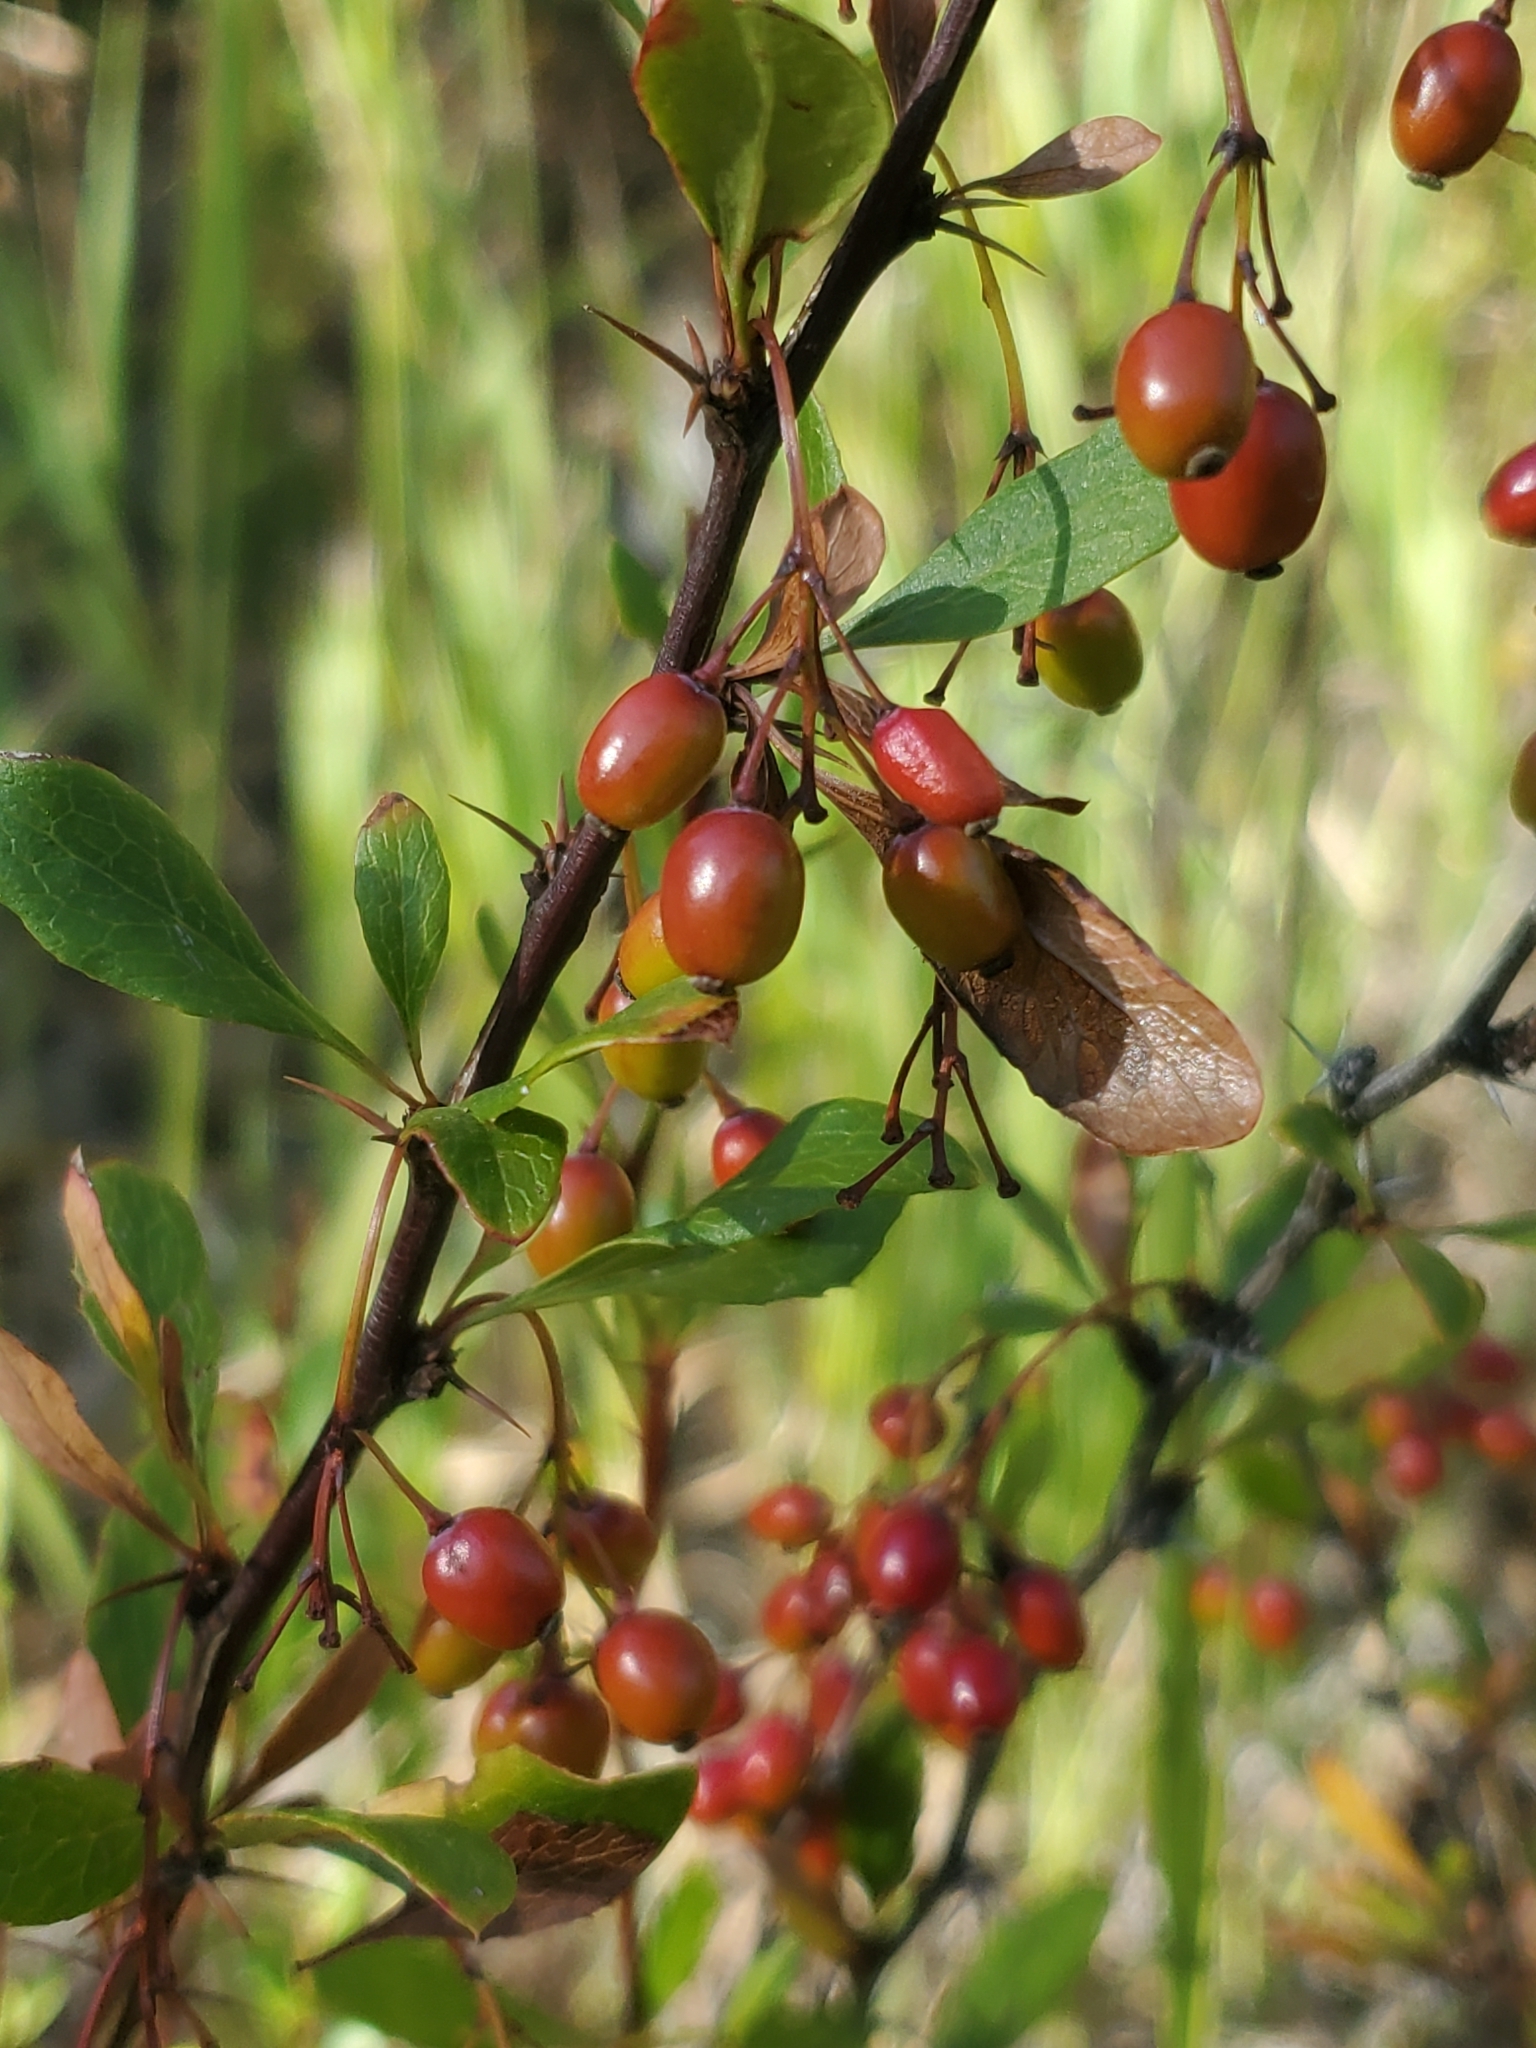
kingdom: Plantae
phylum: Tracheophyta
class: Magnoliopsida
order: Ranunculales
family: Berberidaceae
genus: Berberis
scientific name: Berberis fendleri
